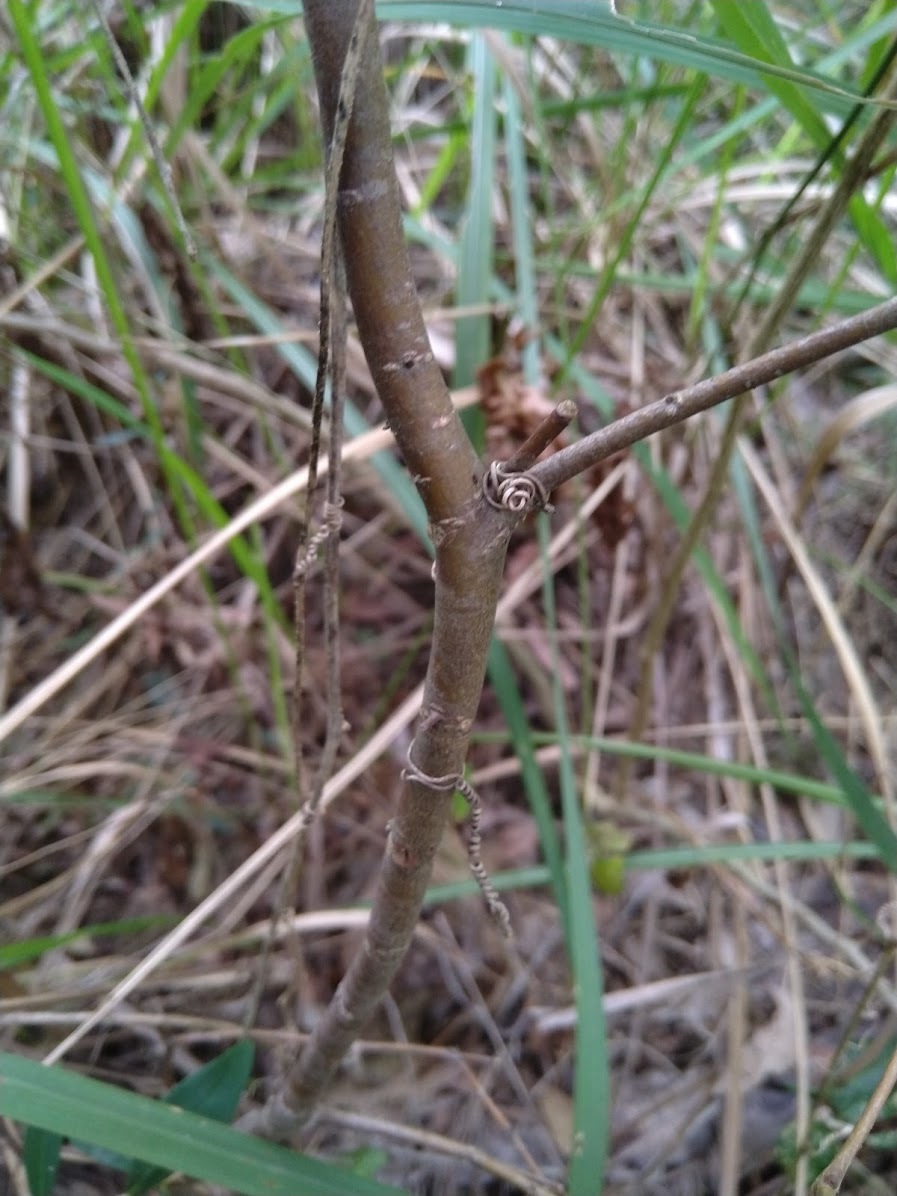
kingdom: Plantae
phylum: Tracheophyta
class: Magnoliopsida
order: Malvales
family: Thymelaeaceae
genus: Wikstroemia
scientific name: Wikstroemia indica
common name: Tiebush
